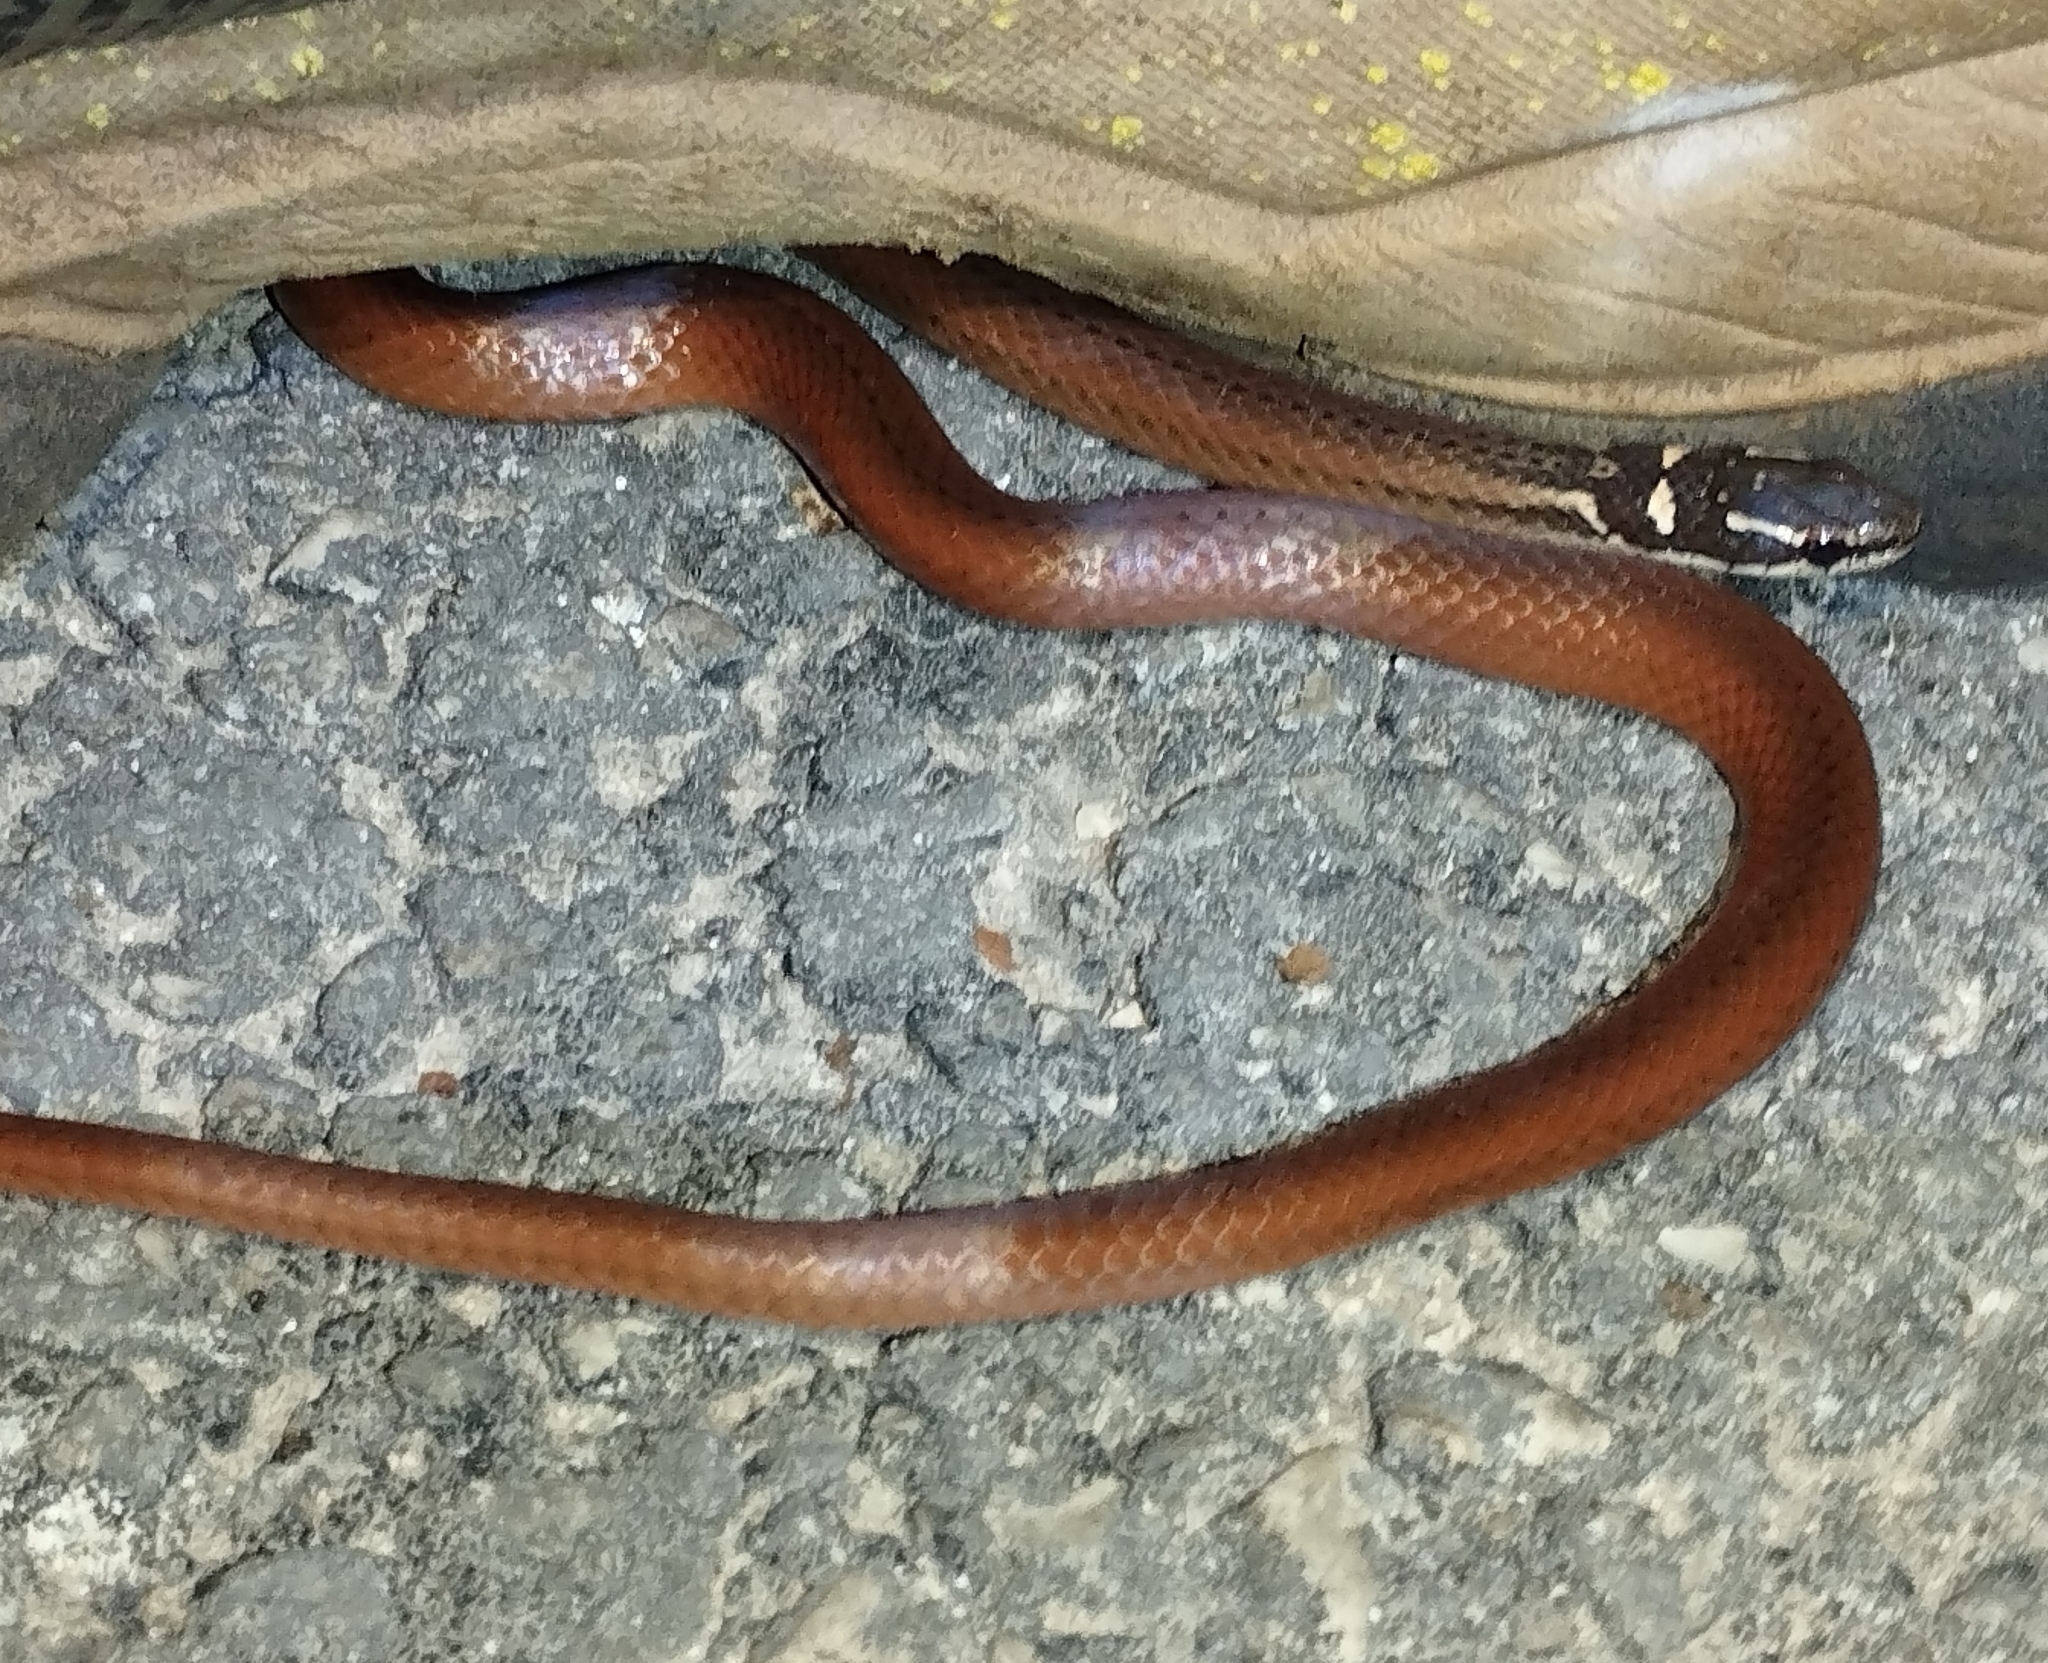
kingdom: Animalia
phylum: Chordata
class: Squamata
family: Colubridae
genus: Coniophanes
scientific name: Coniophanes meridanus
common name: Peninsula stripeless snake
